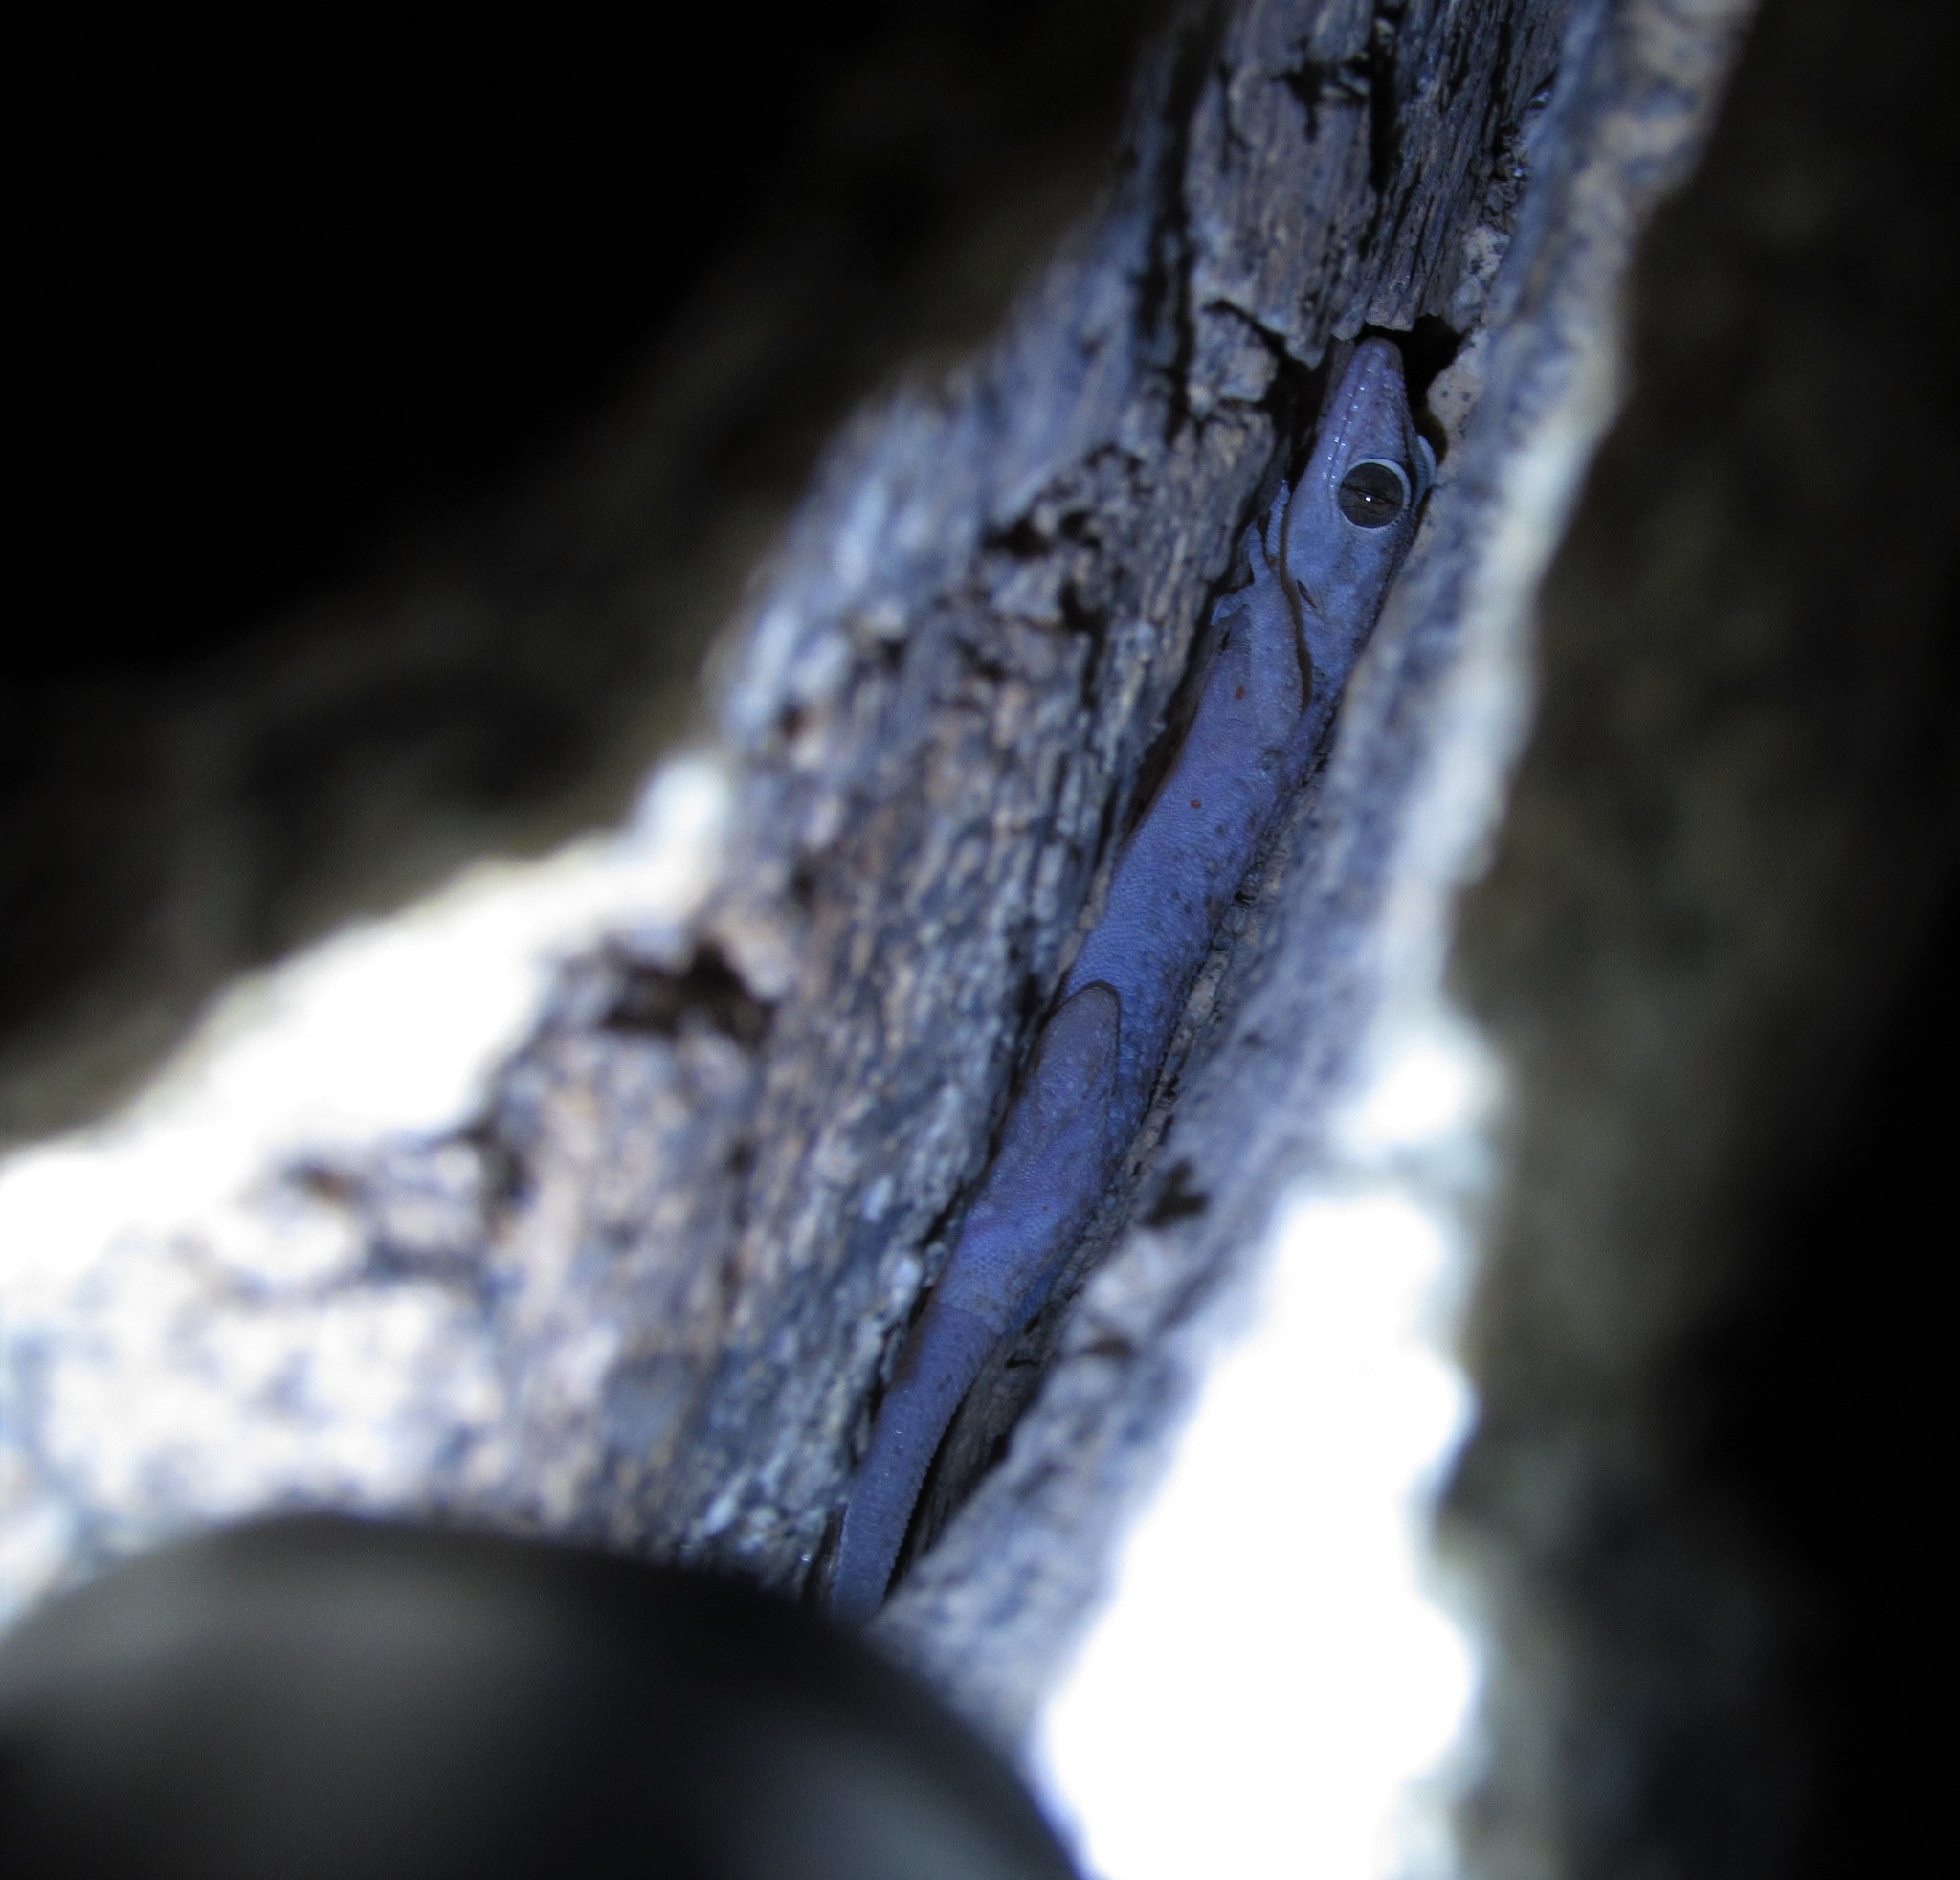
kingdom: Animalia
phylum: Chordata
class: Squamata
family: Phyllodactylidae
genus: Phyllodactylus
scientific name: Phyllodactylus nocticolus
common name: Peninsula leaf-toed gecko
